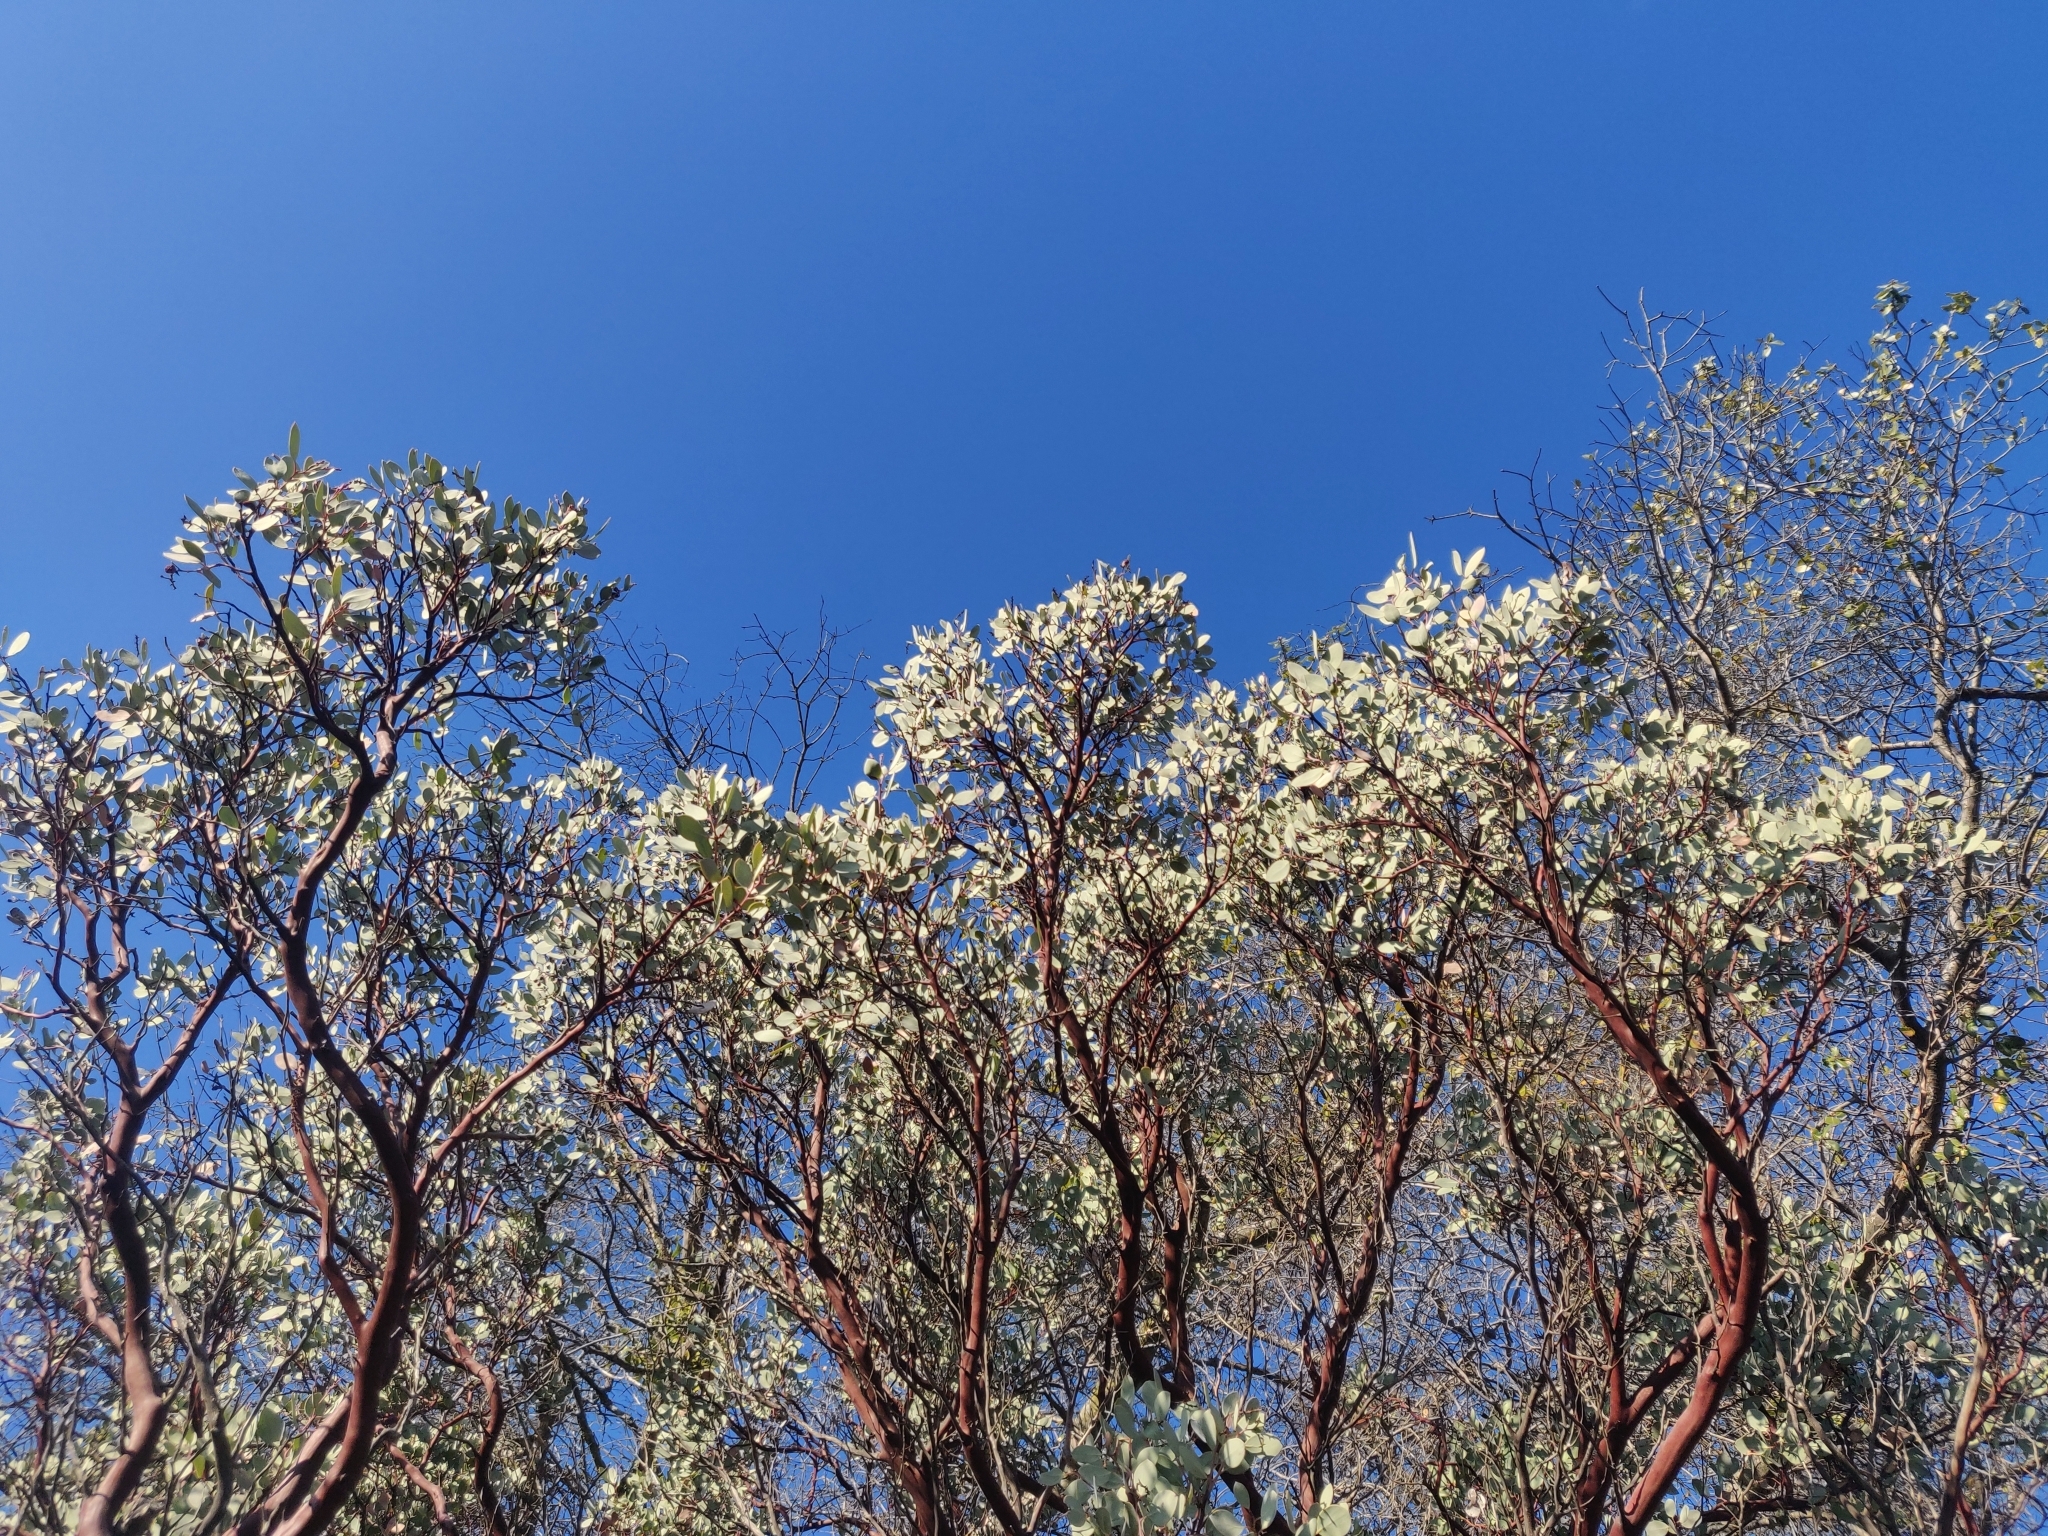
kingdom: Plantae
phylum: Tracheophyta
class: Magnoliopsida
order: Ericales
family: Ericaceae
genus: Arctostaphylos
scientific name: Arctostaphylos viscida
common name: White-leaf manzanita
